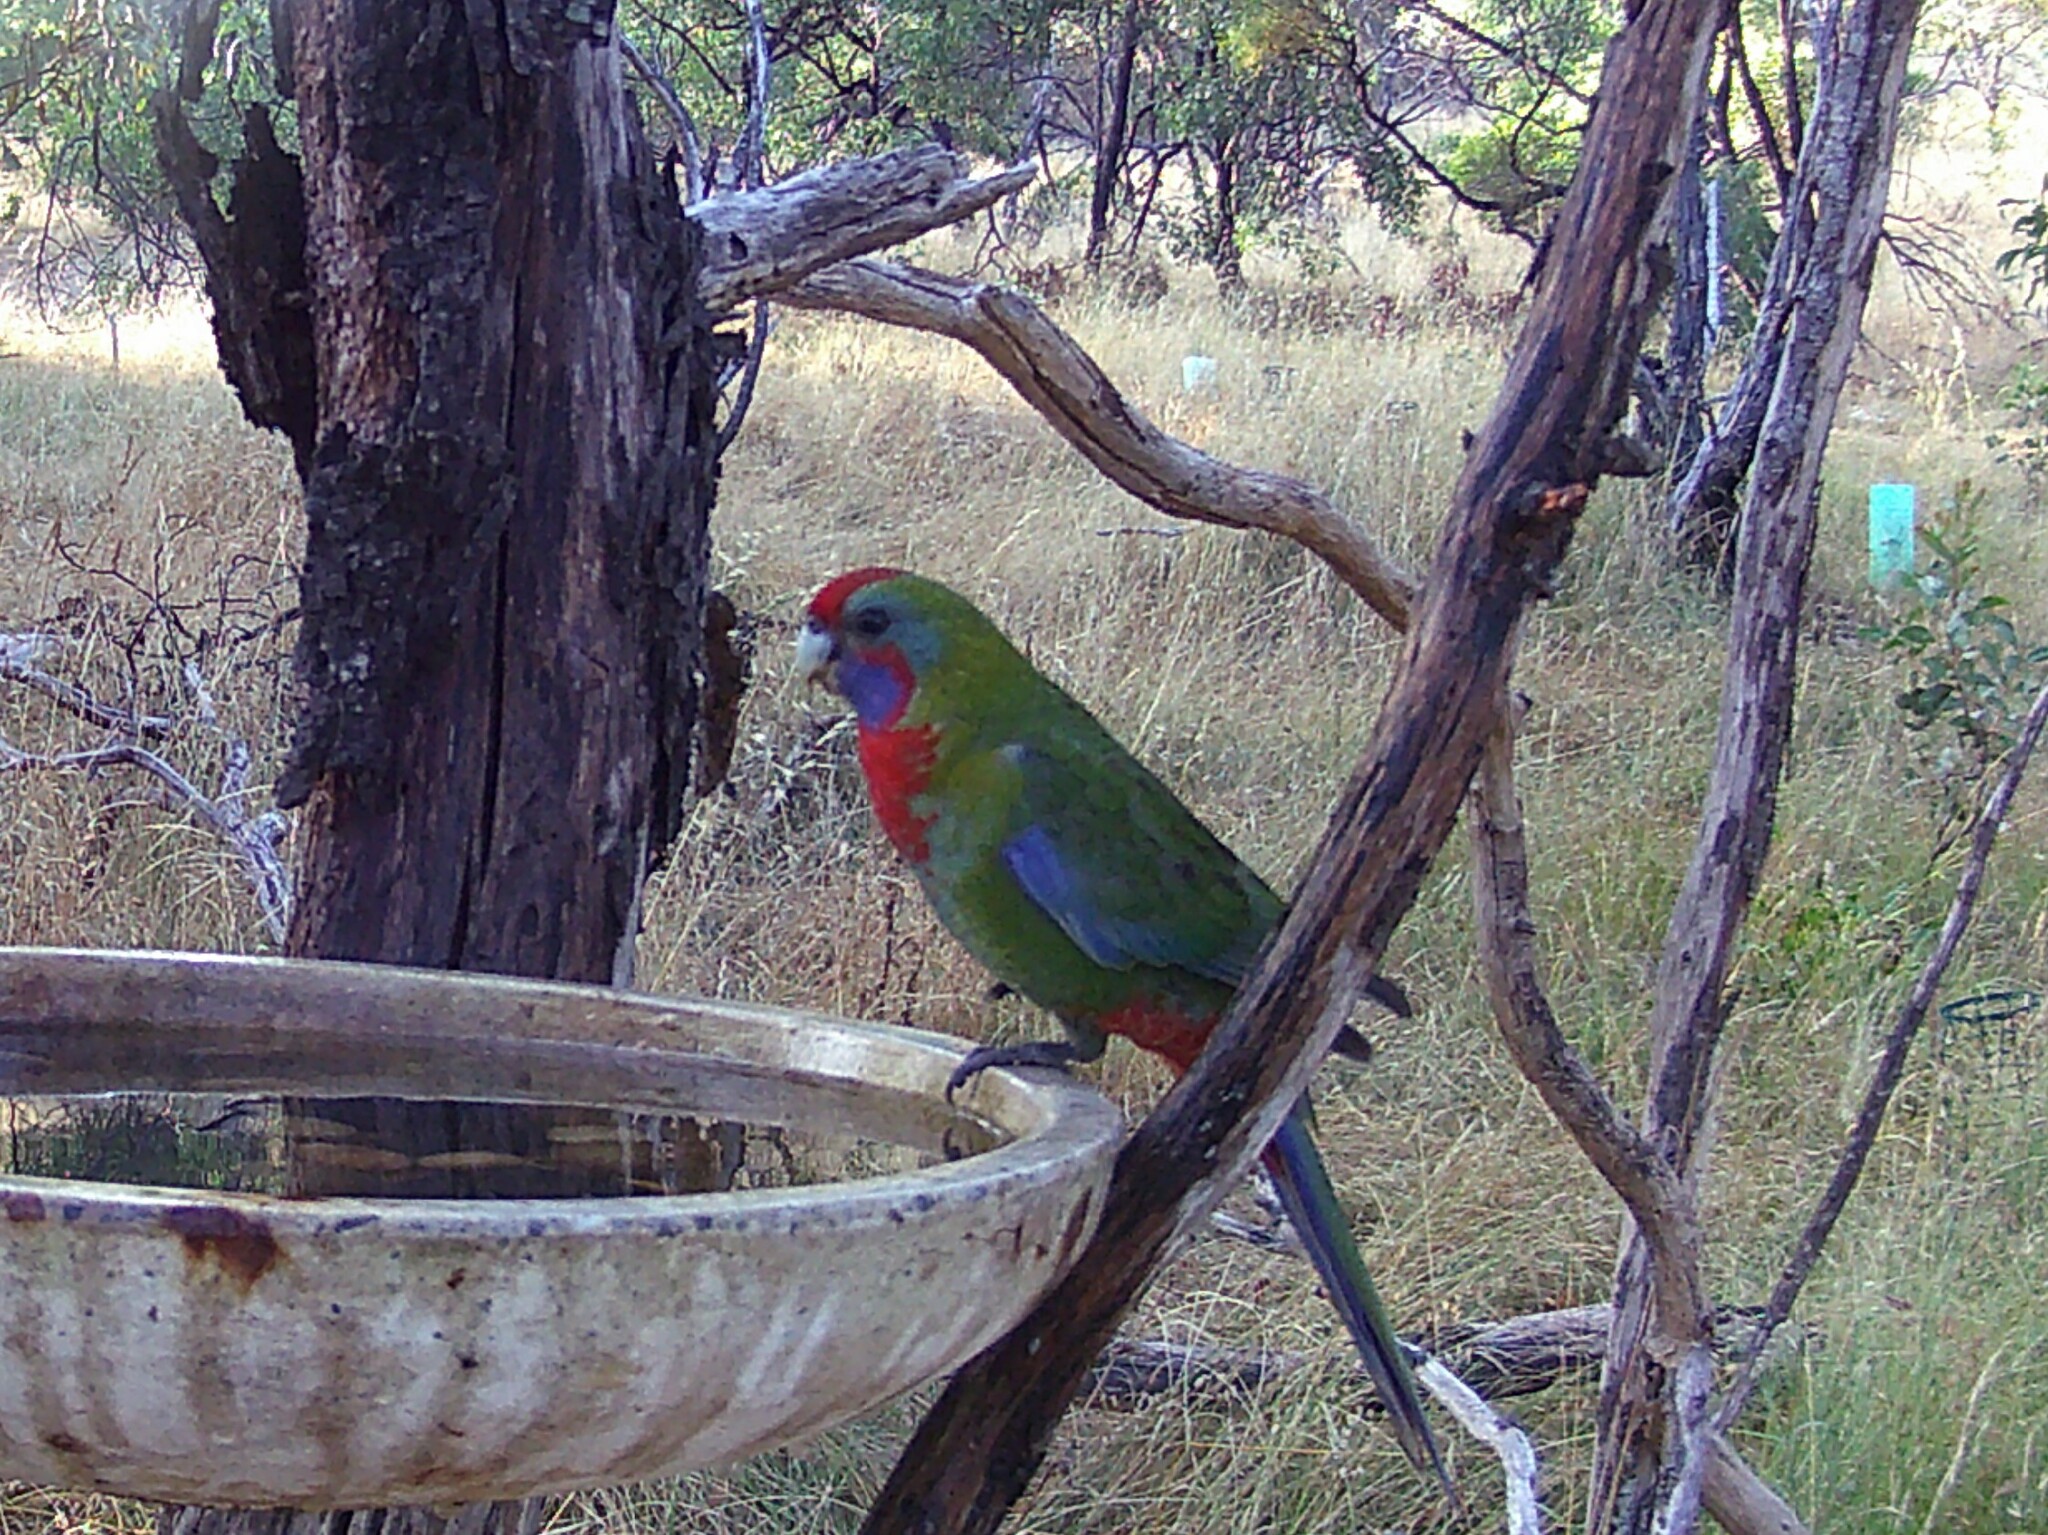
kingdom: Animalia
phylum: Chordata
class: Aves
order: Psittaciformes
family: Psittacidae
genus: Platycercus
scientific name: Platycercus elegans
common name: Crimson rosella
